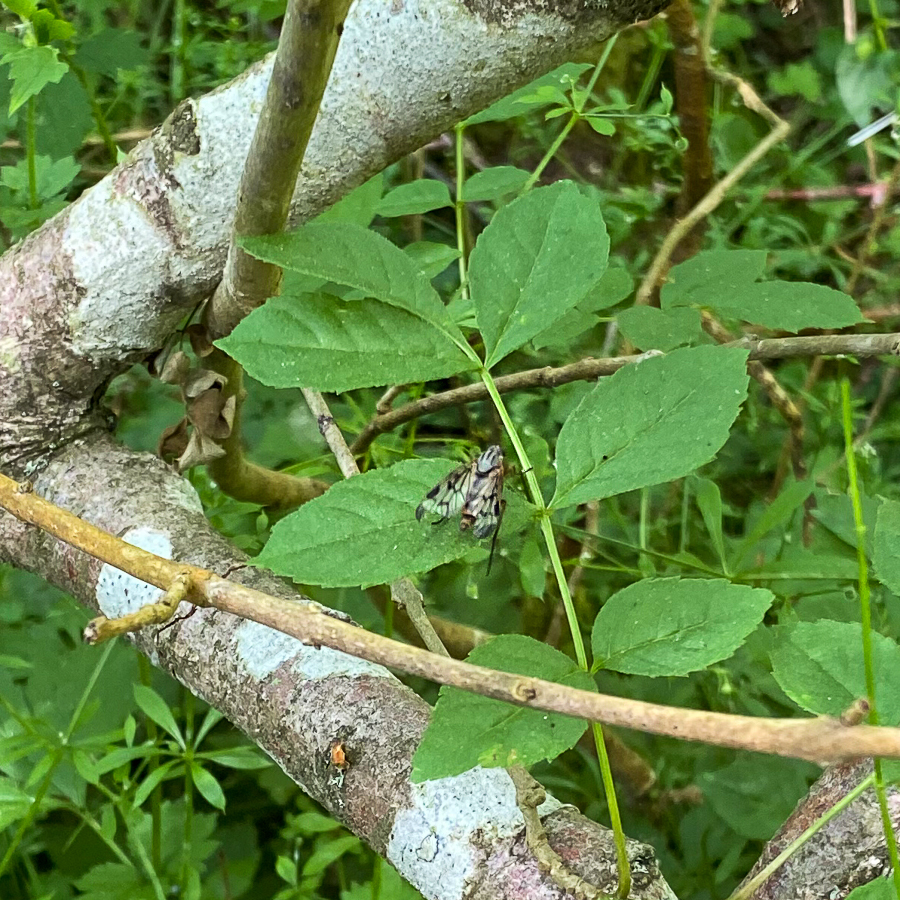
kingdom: Animalia
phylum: Arthropoda
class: Insecta
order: Diptera
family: Rhagionidae
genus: Rhagio
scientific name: Rhagio scolopacea
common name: Downlooker snipefly
